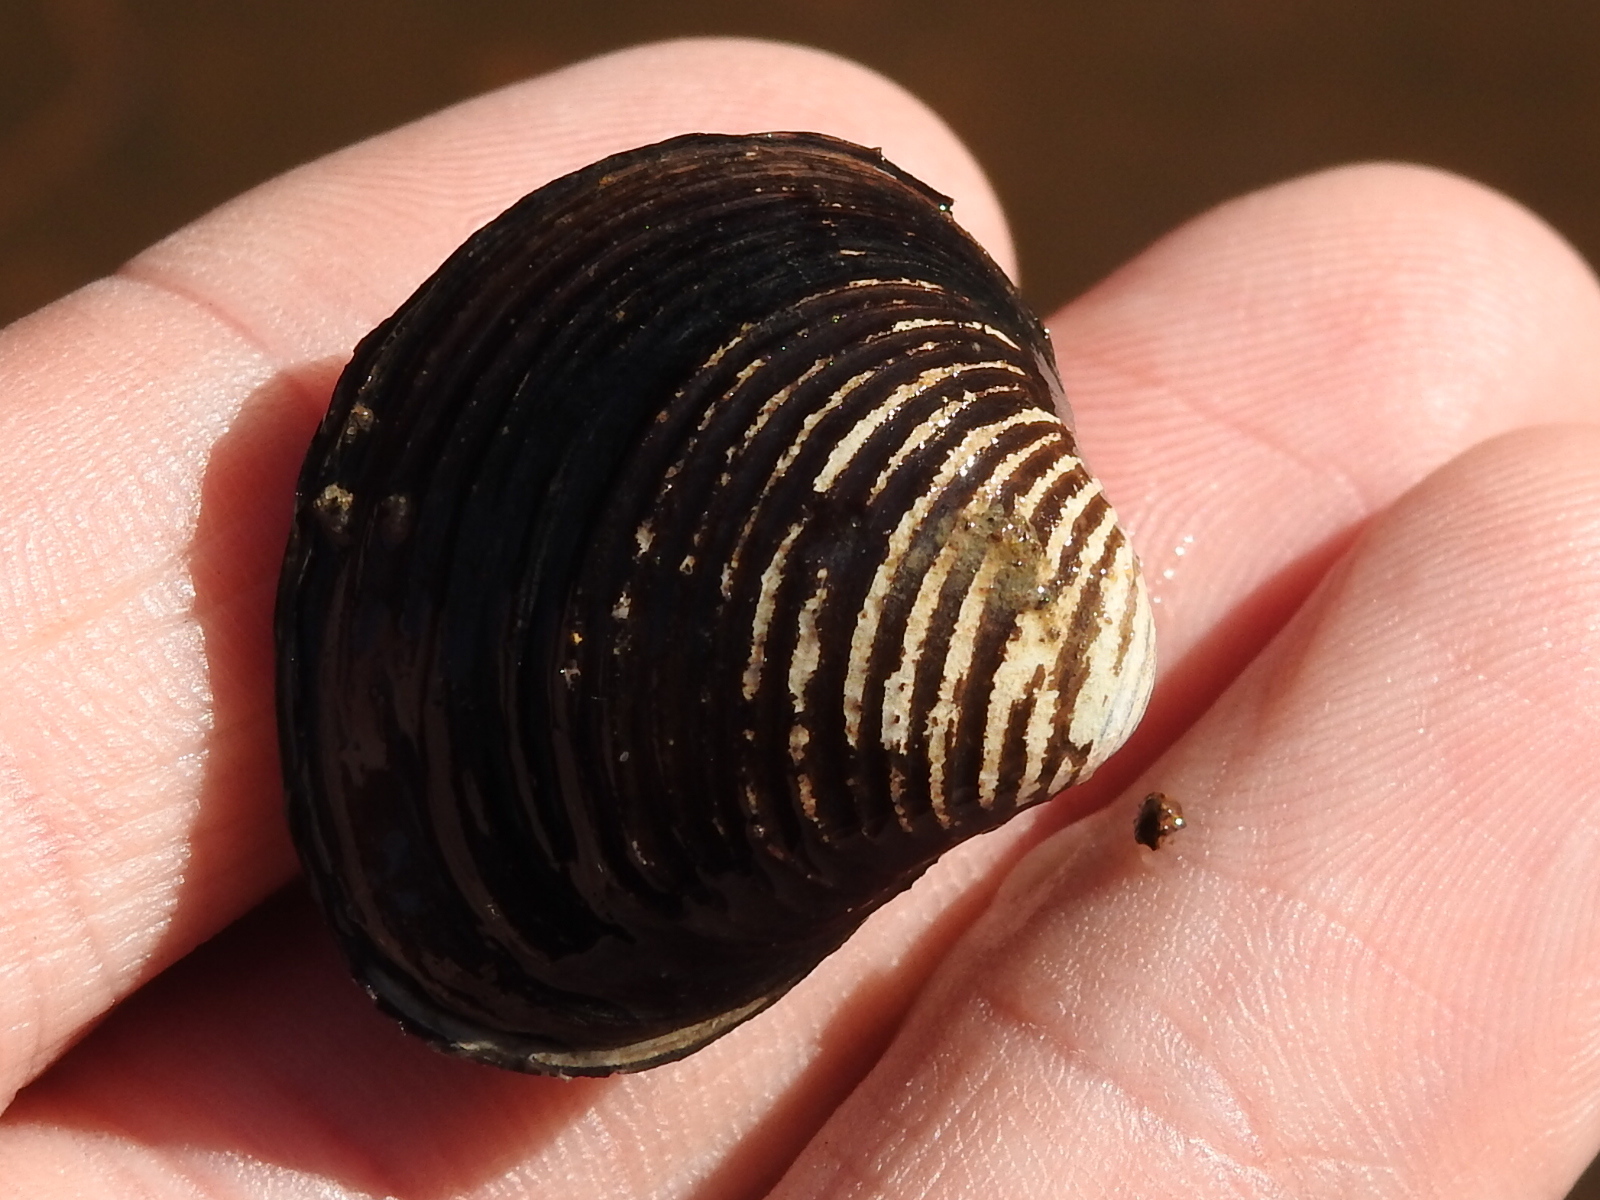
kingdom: Animalia
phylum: Mollusca
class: Bivalvia
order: Venerida
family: Cyrenidae
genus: Corbicula
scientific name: Corbicula fluminea
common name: Asian clam
